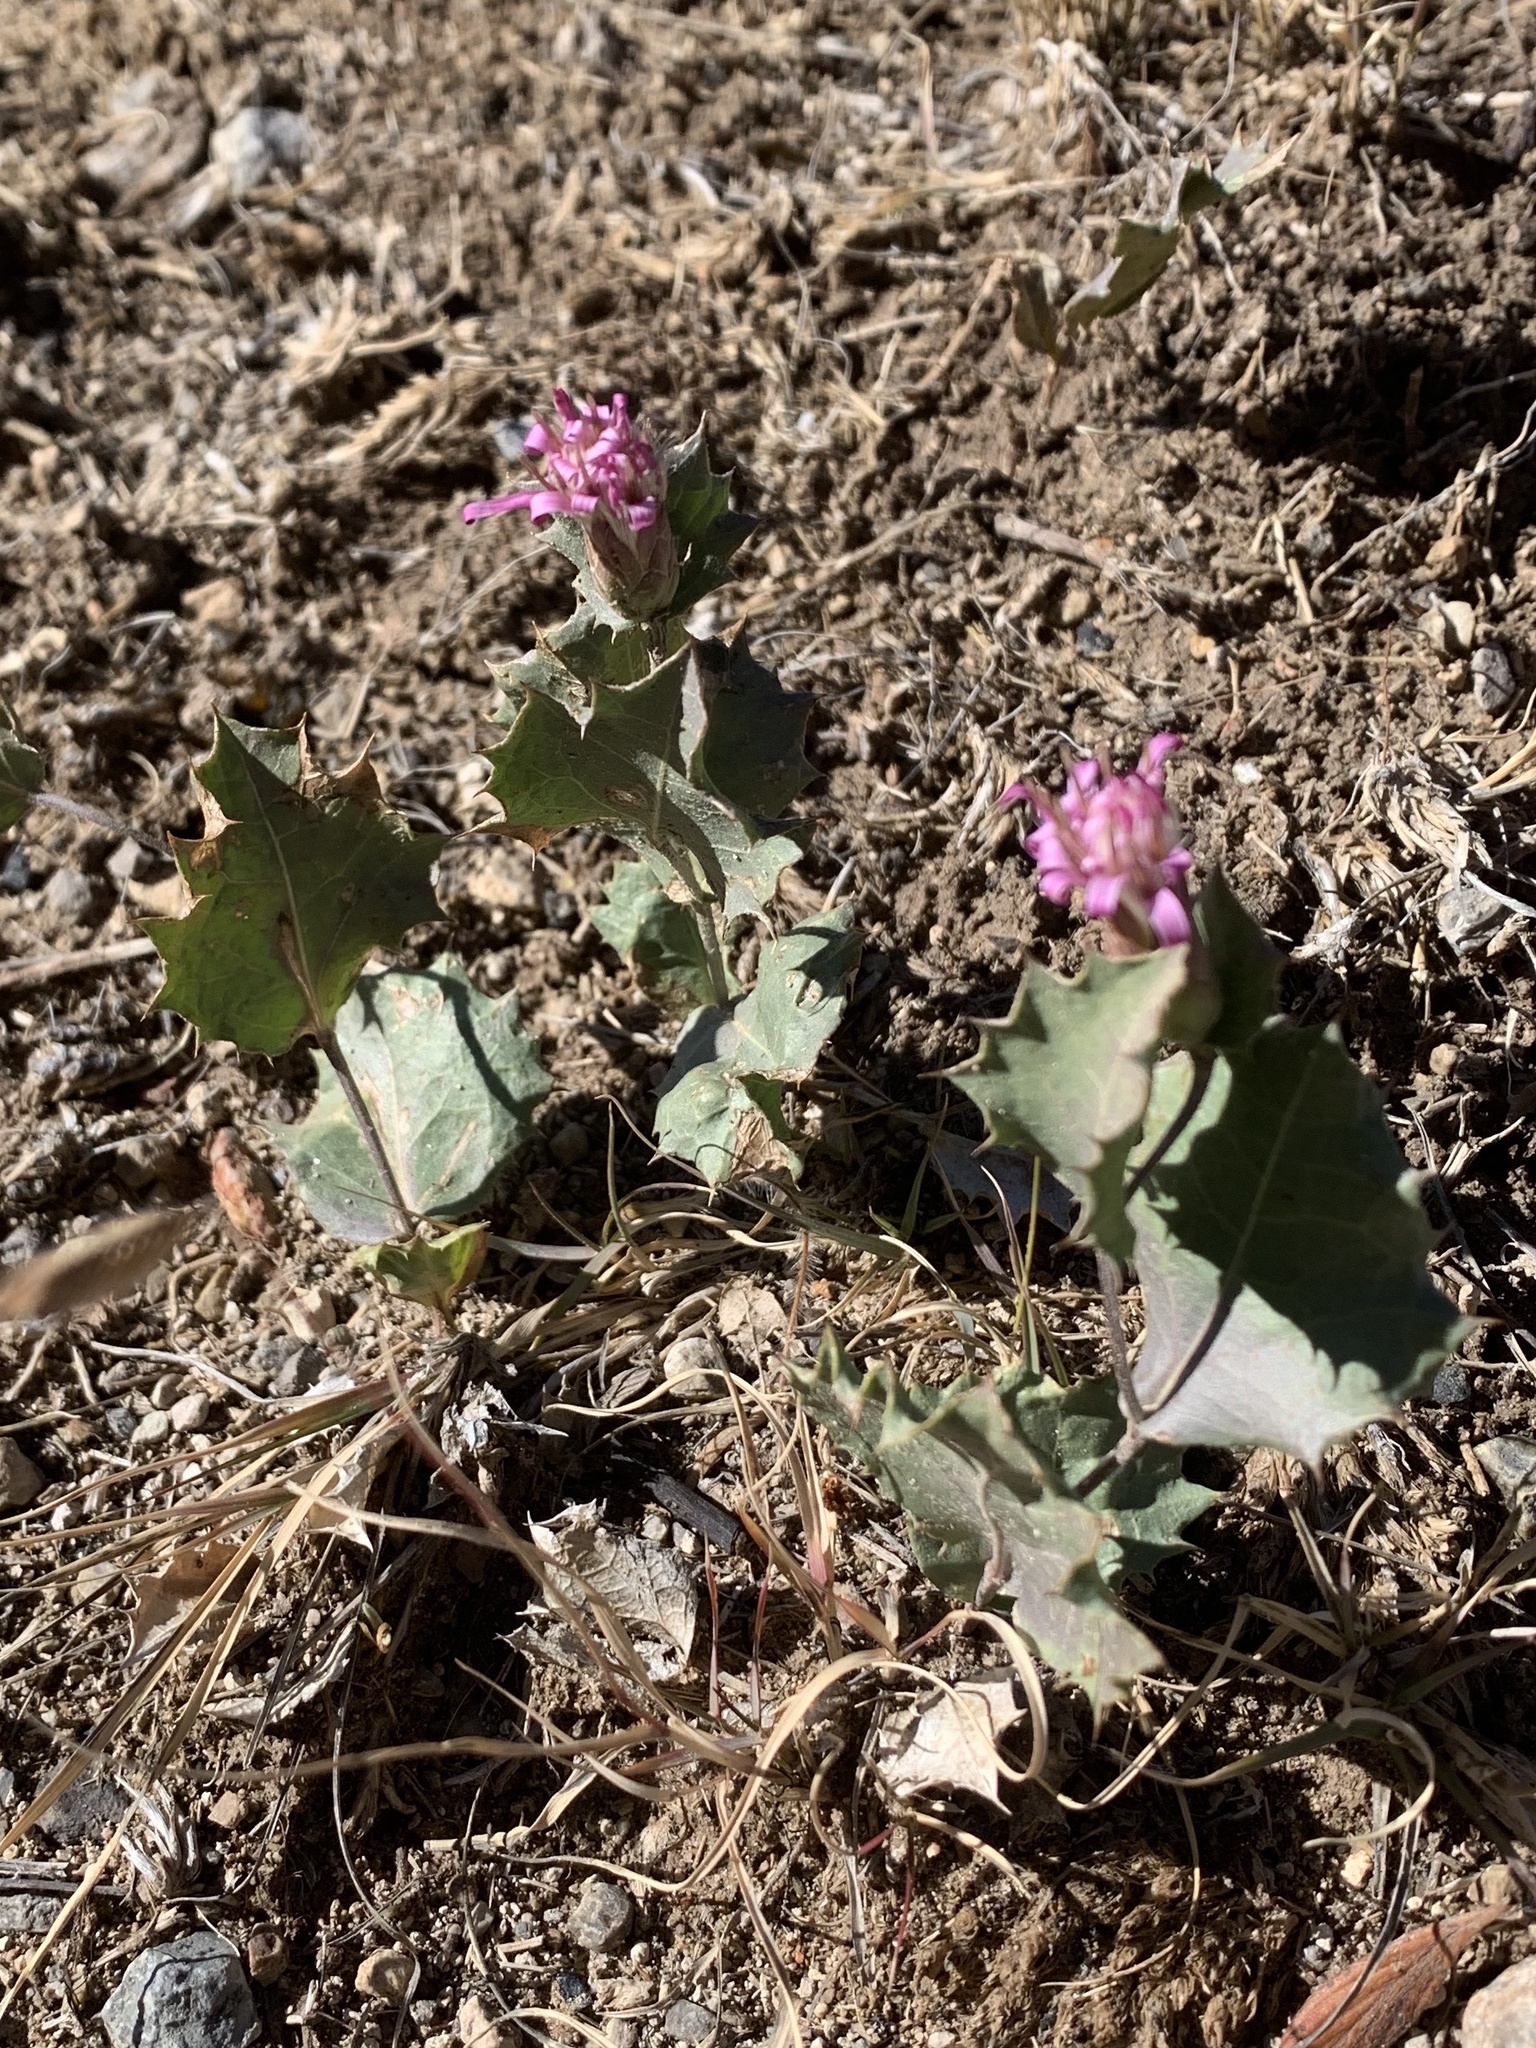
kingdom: Plantae
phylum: Tracheophyta
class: Magnoliopsida
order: Asterales
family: Asteraceae
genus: Acourtia
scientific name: Acourtia nana
